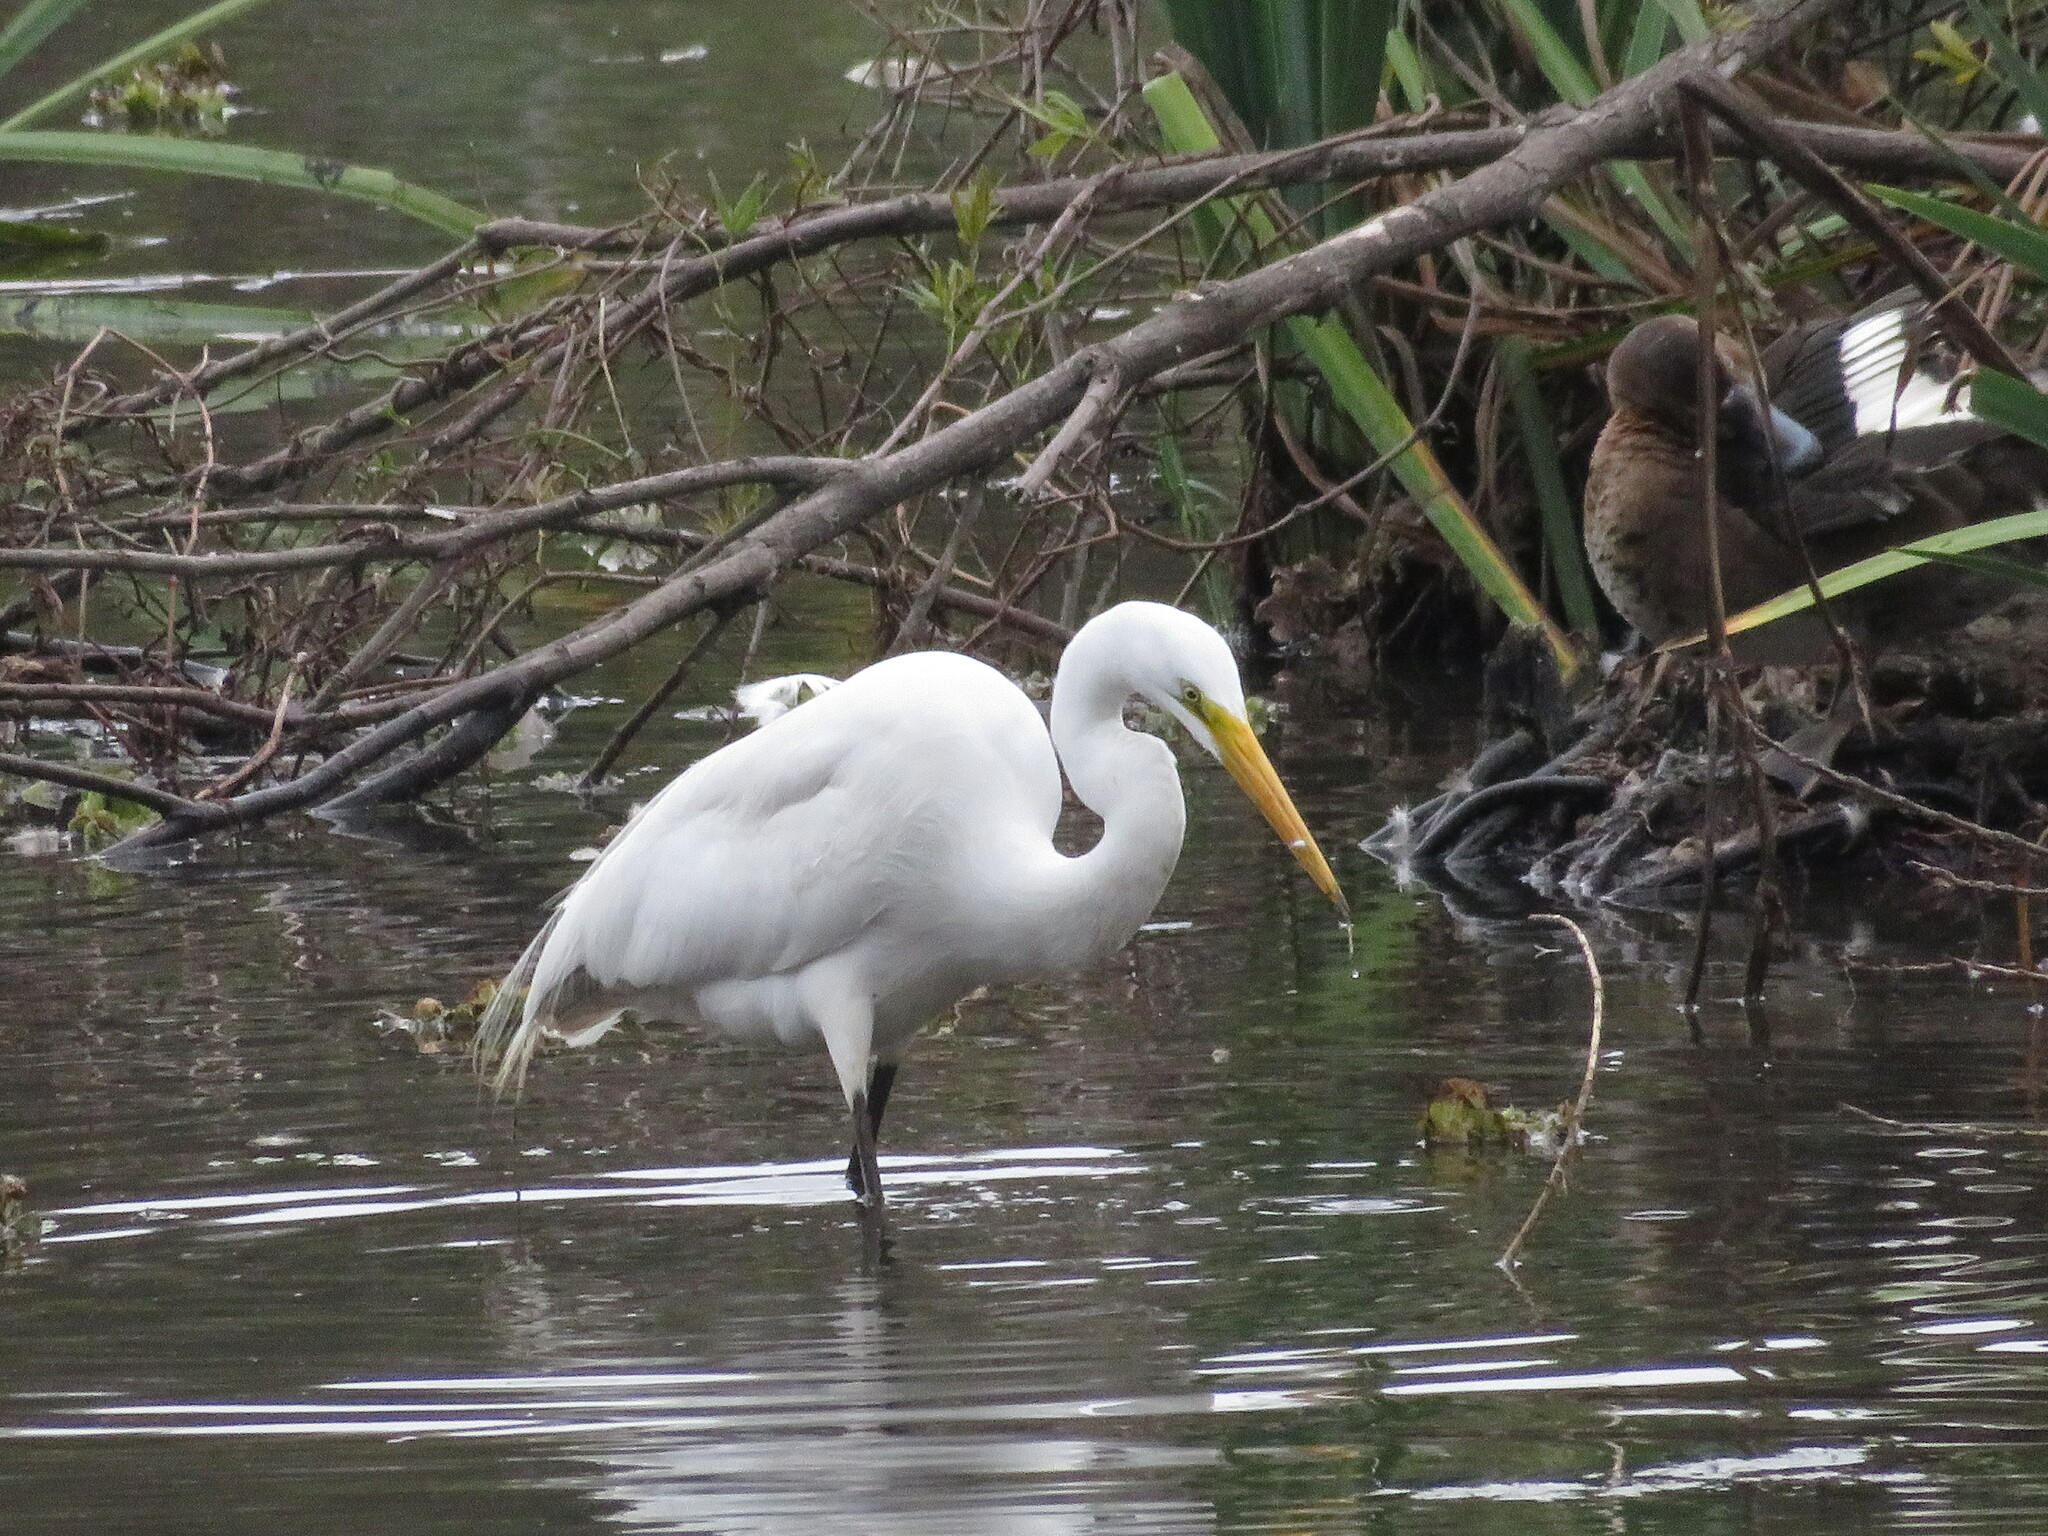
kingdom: Animalia
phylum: Chordata
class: Aves
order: Pelecaniformes
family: Ardeidae
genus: Ardea
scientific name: Ardea alba
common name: Great egret
